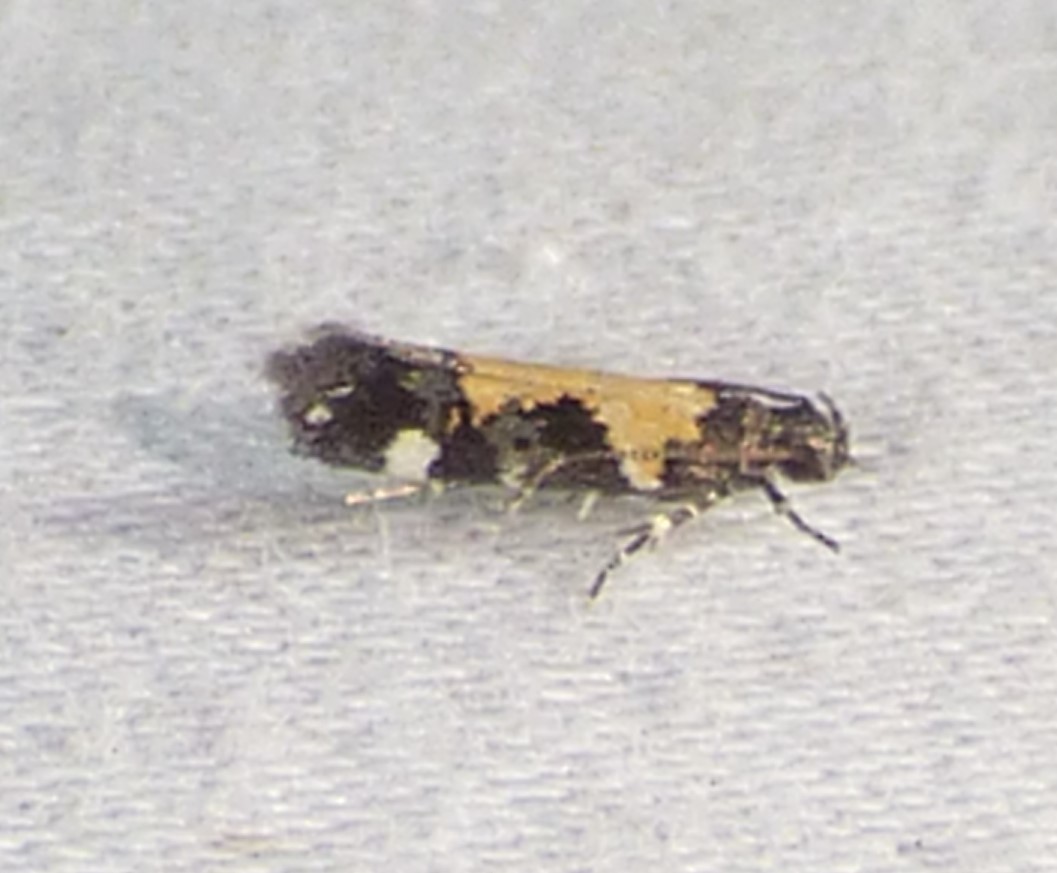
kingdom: Animalia
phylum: Arthropoda
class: Insecta
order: Lepidoptera
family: Gelechiidae
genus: Stegasta
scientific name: Stegasta bosqueella
